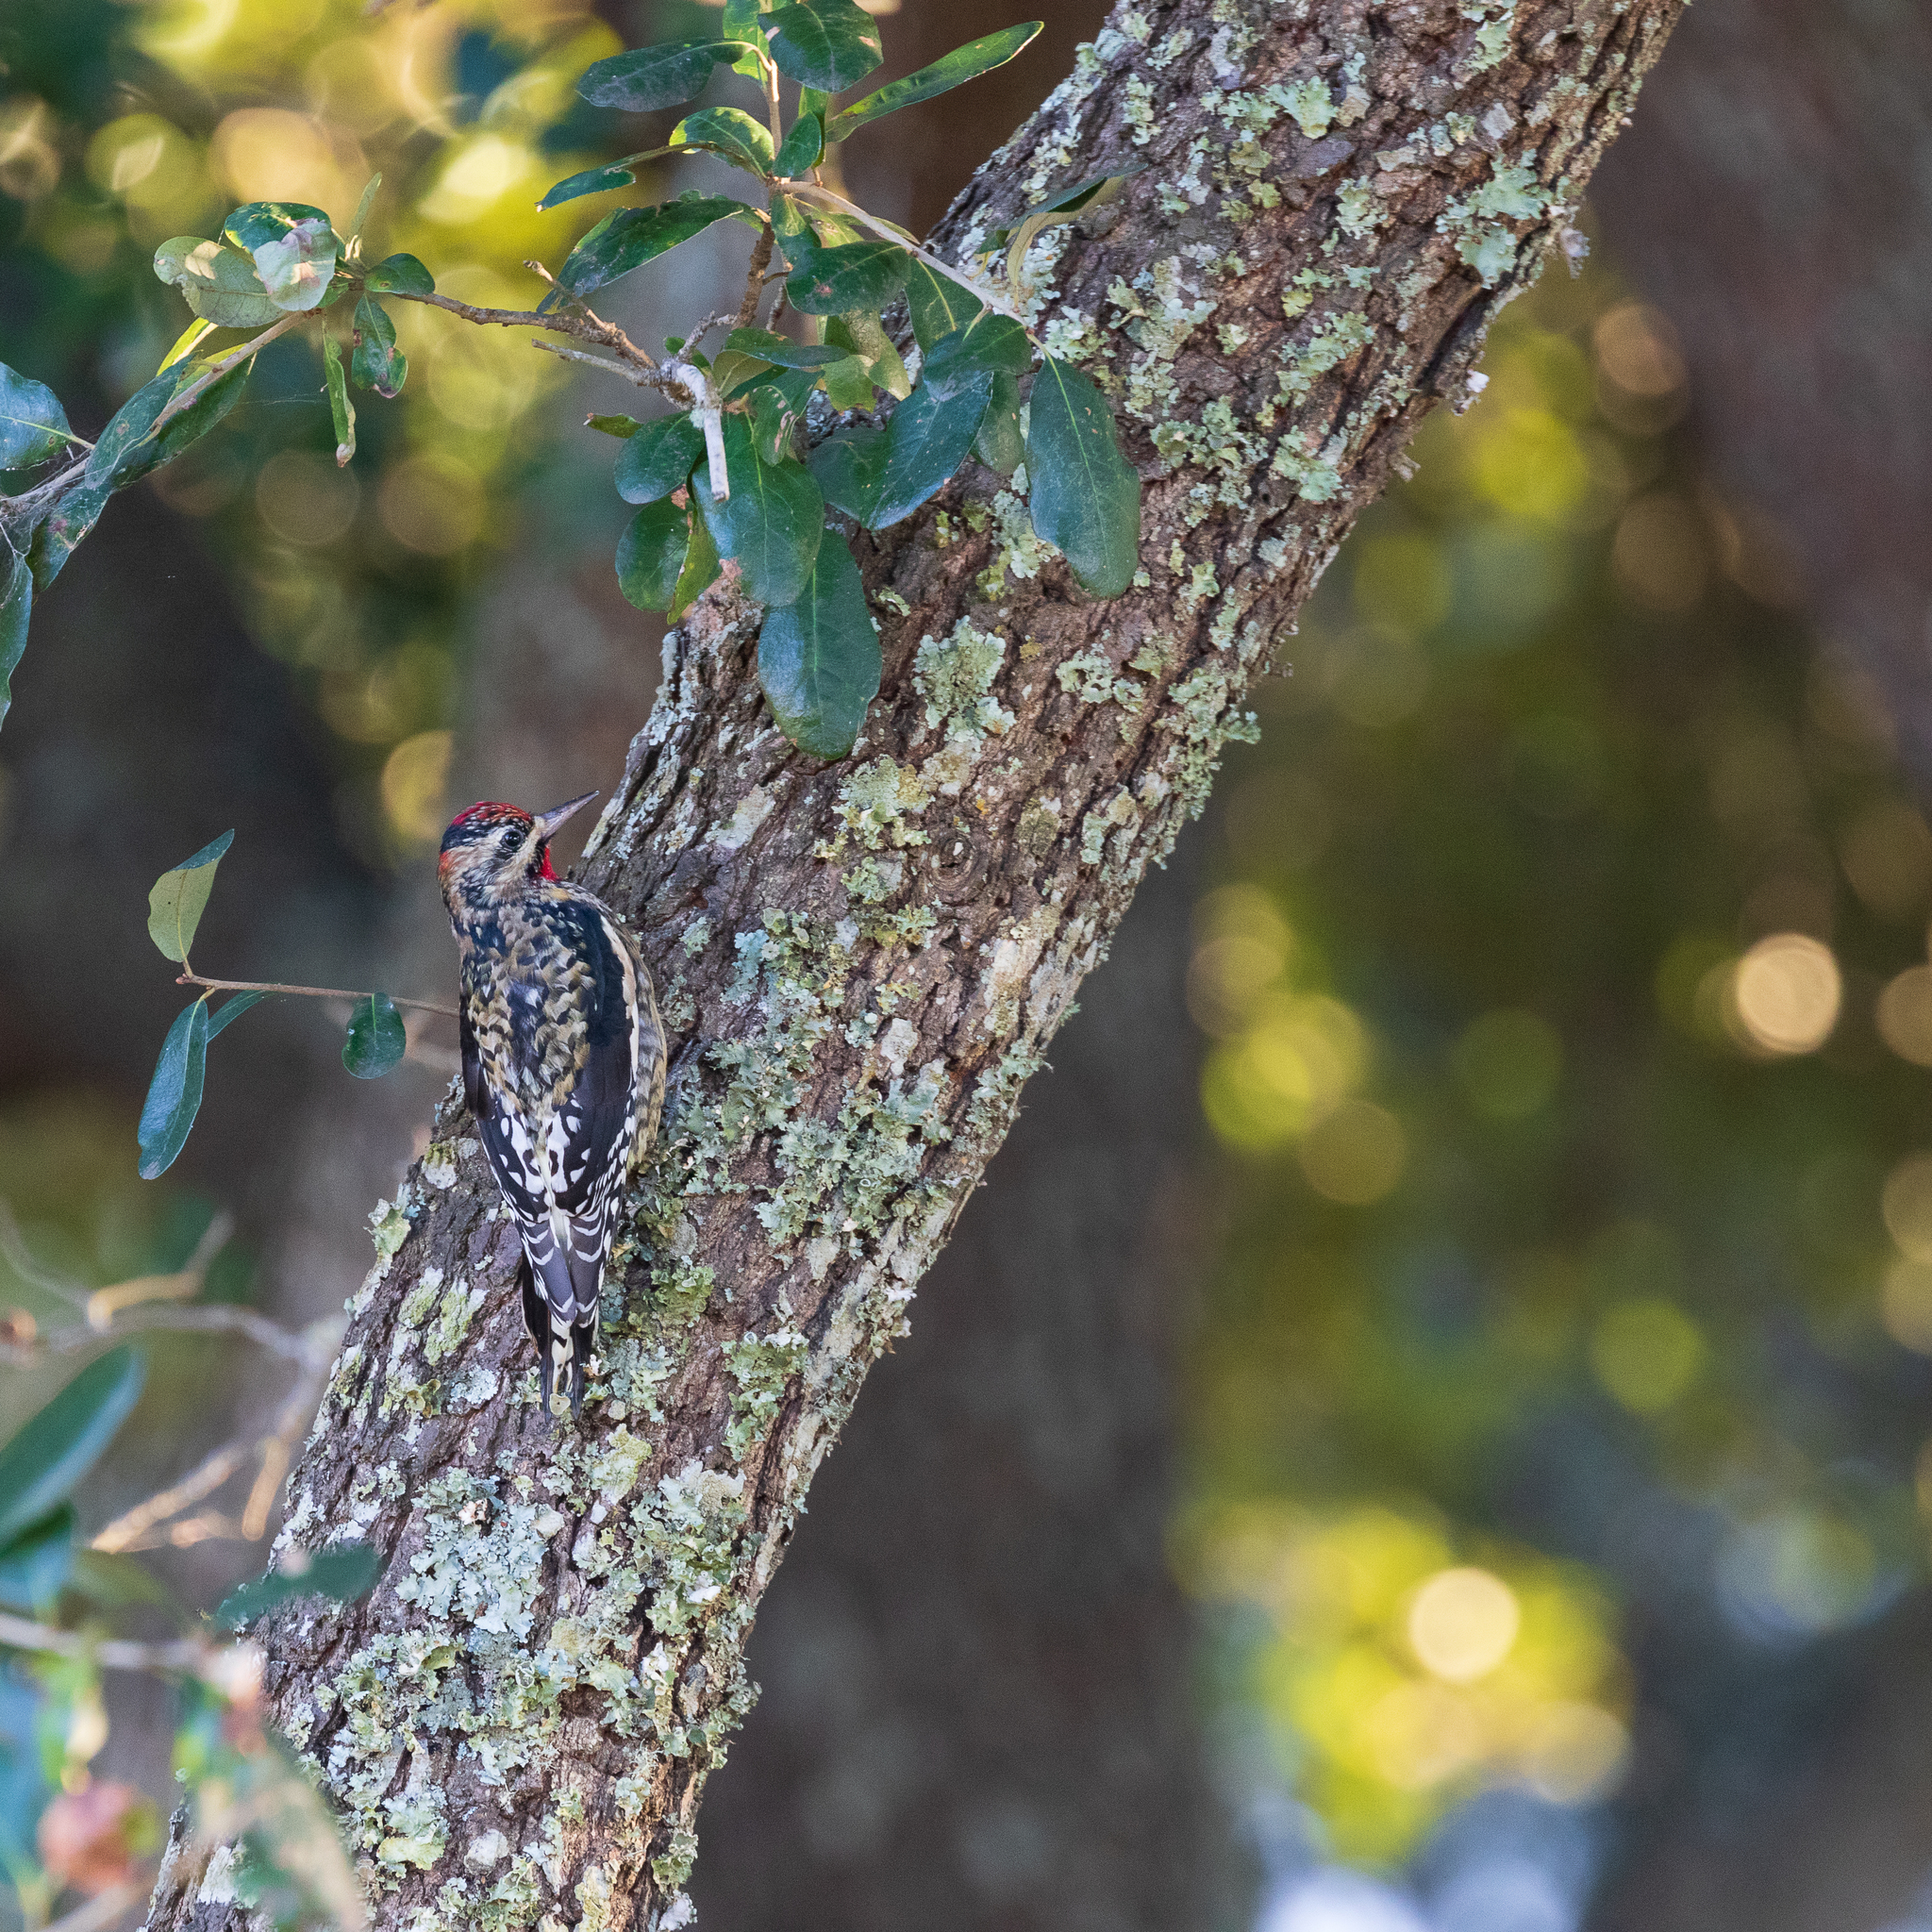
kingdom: Animalia
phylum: Chordata
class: Aves
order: Piciformes
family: Picidae
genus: Sphyrapicus
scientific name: Sphyrapicus varius
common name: Yellow-bellied sapsucker
